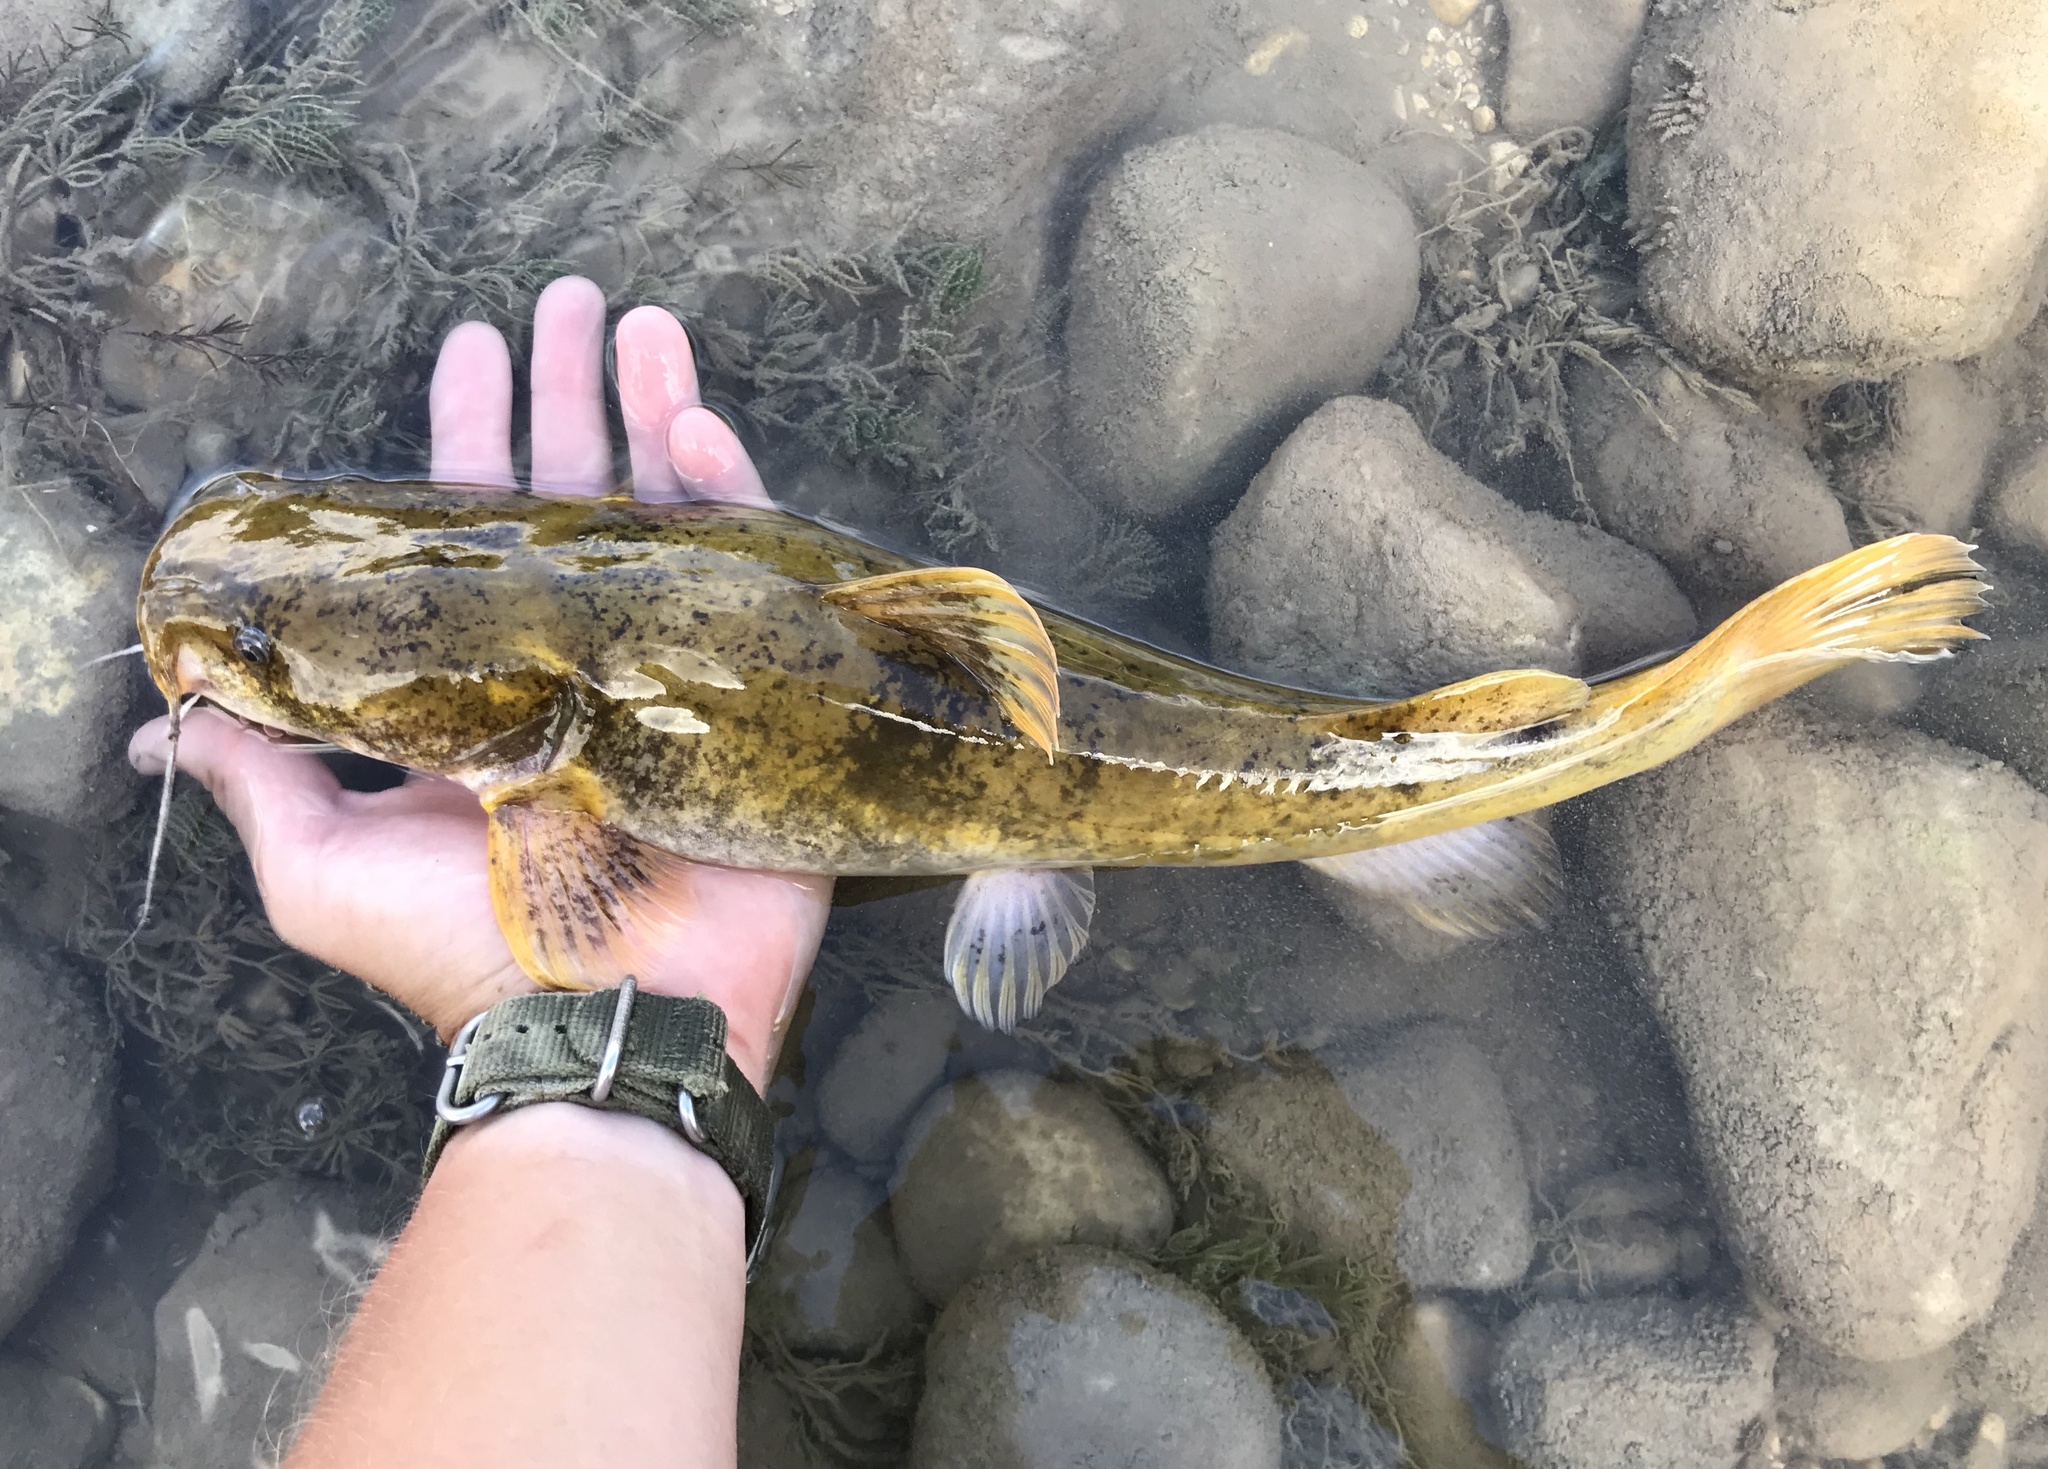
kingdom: Animalia
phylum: Chordata
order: Siluriformes
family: Ictaluridae
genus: Pylodictis
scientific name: Pylodictis olivaris
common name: Flathead catfish
